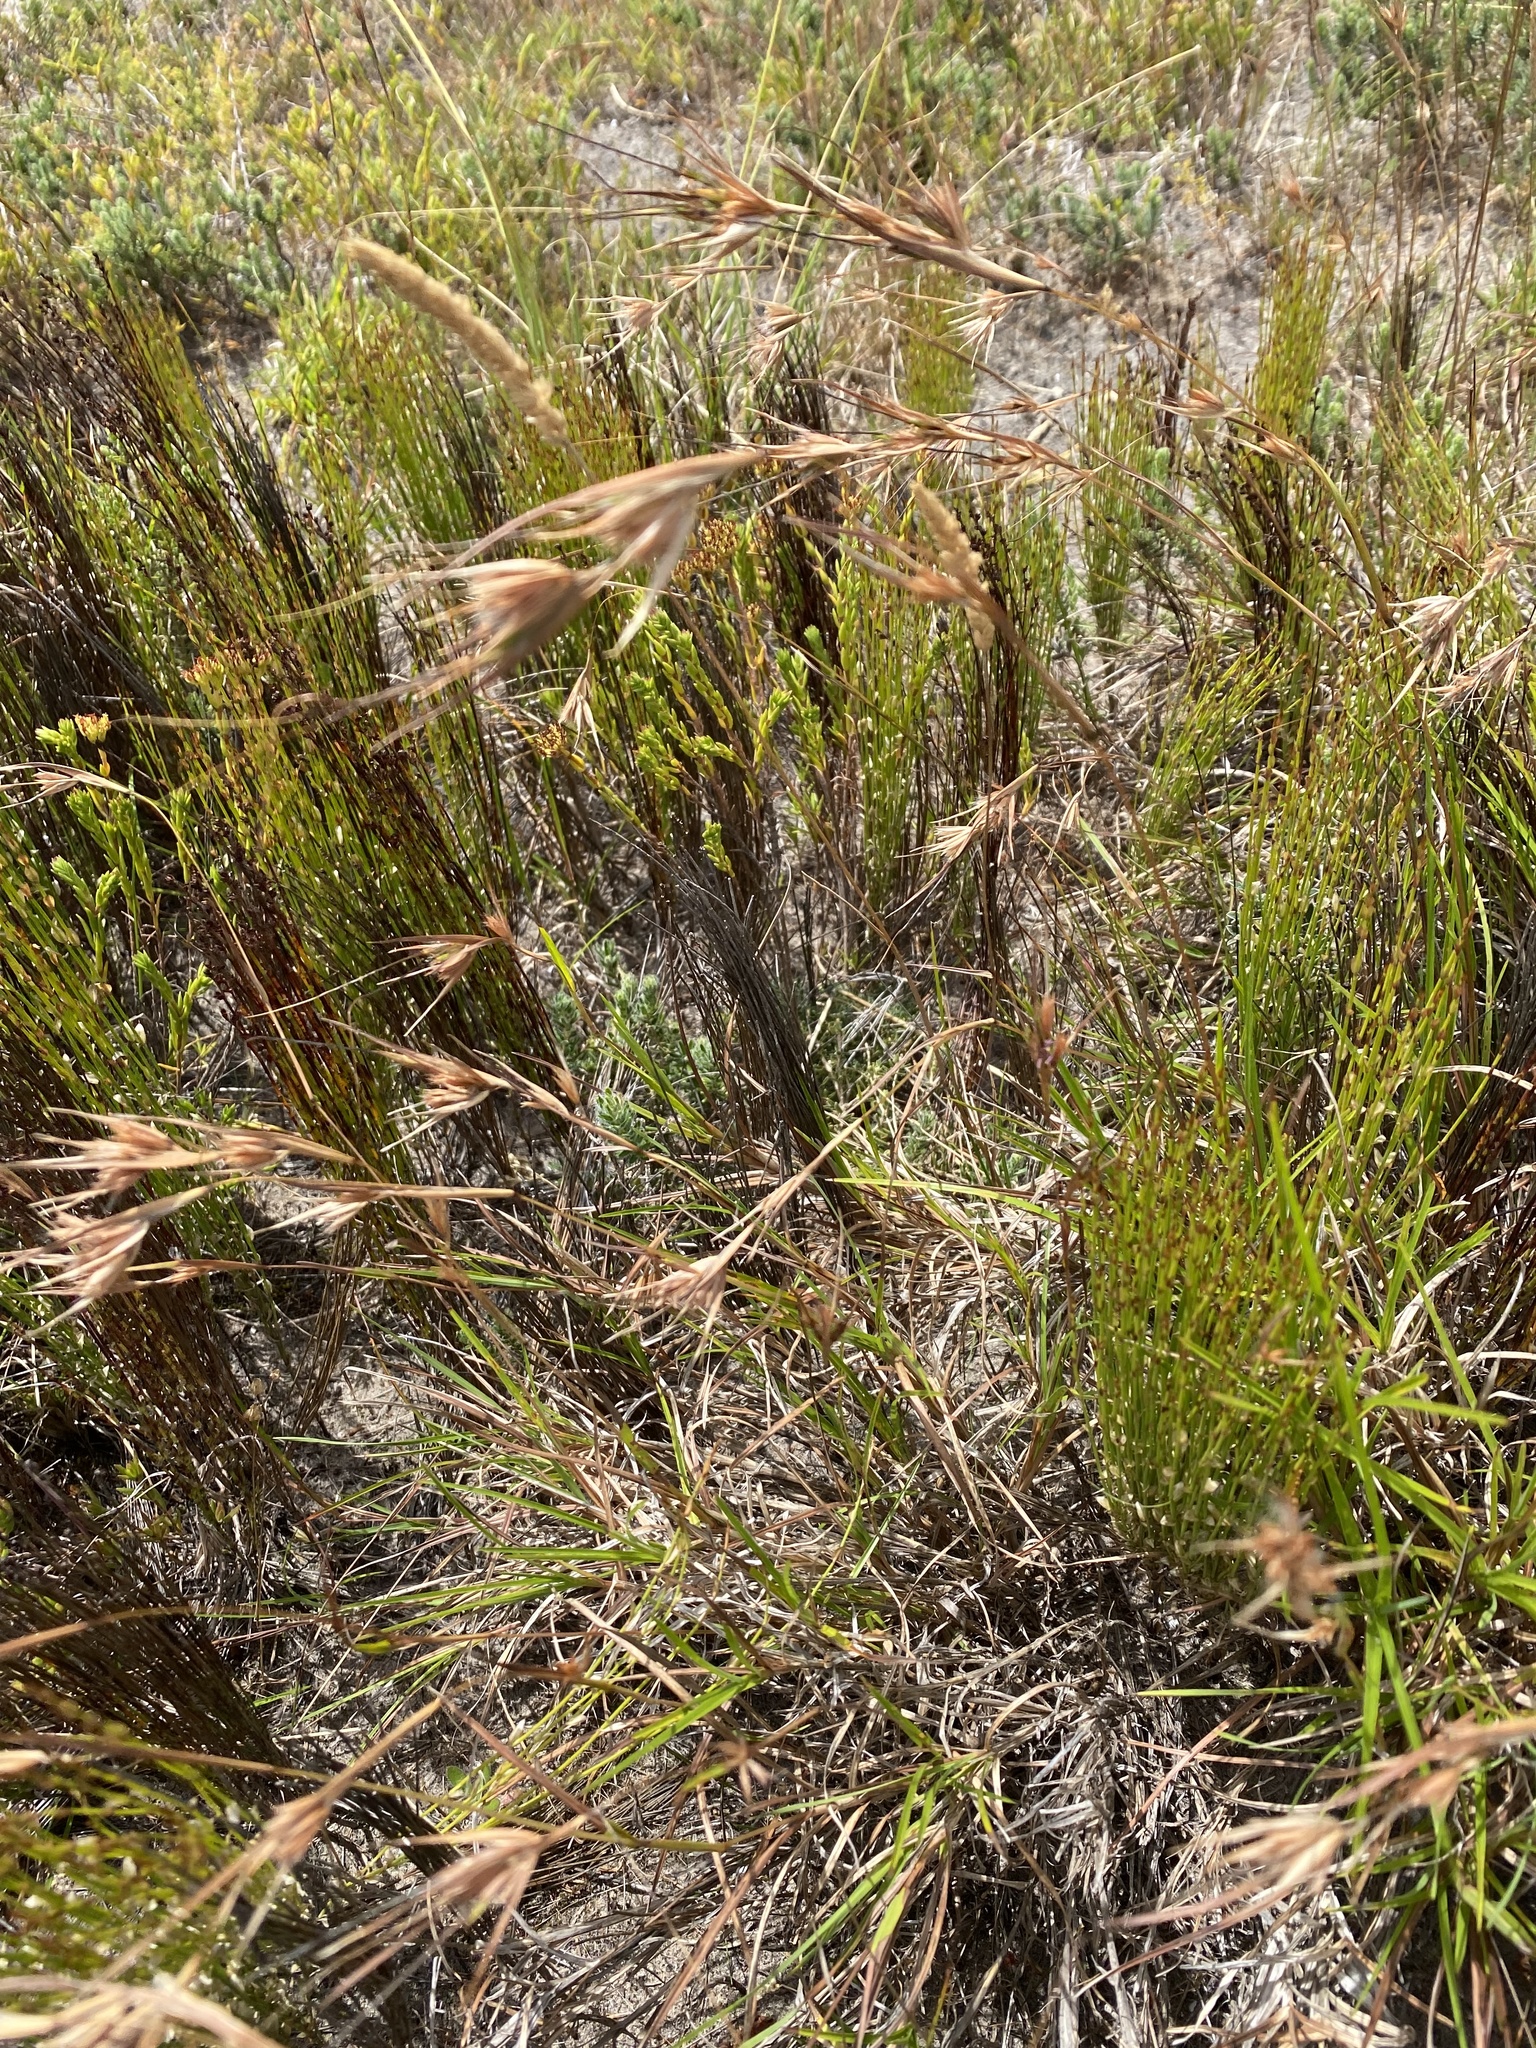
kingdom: Plantae
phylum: Tracheophyta
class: Liliopsida
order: Poales
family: Poaceae
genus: Themeda
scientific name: Themeda triandra
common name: Kangaroo grass
